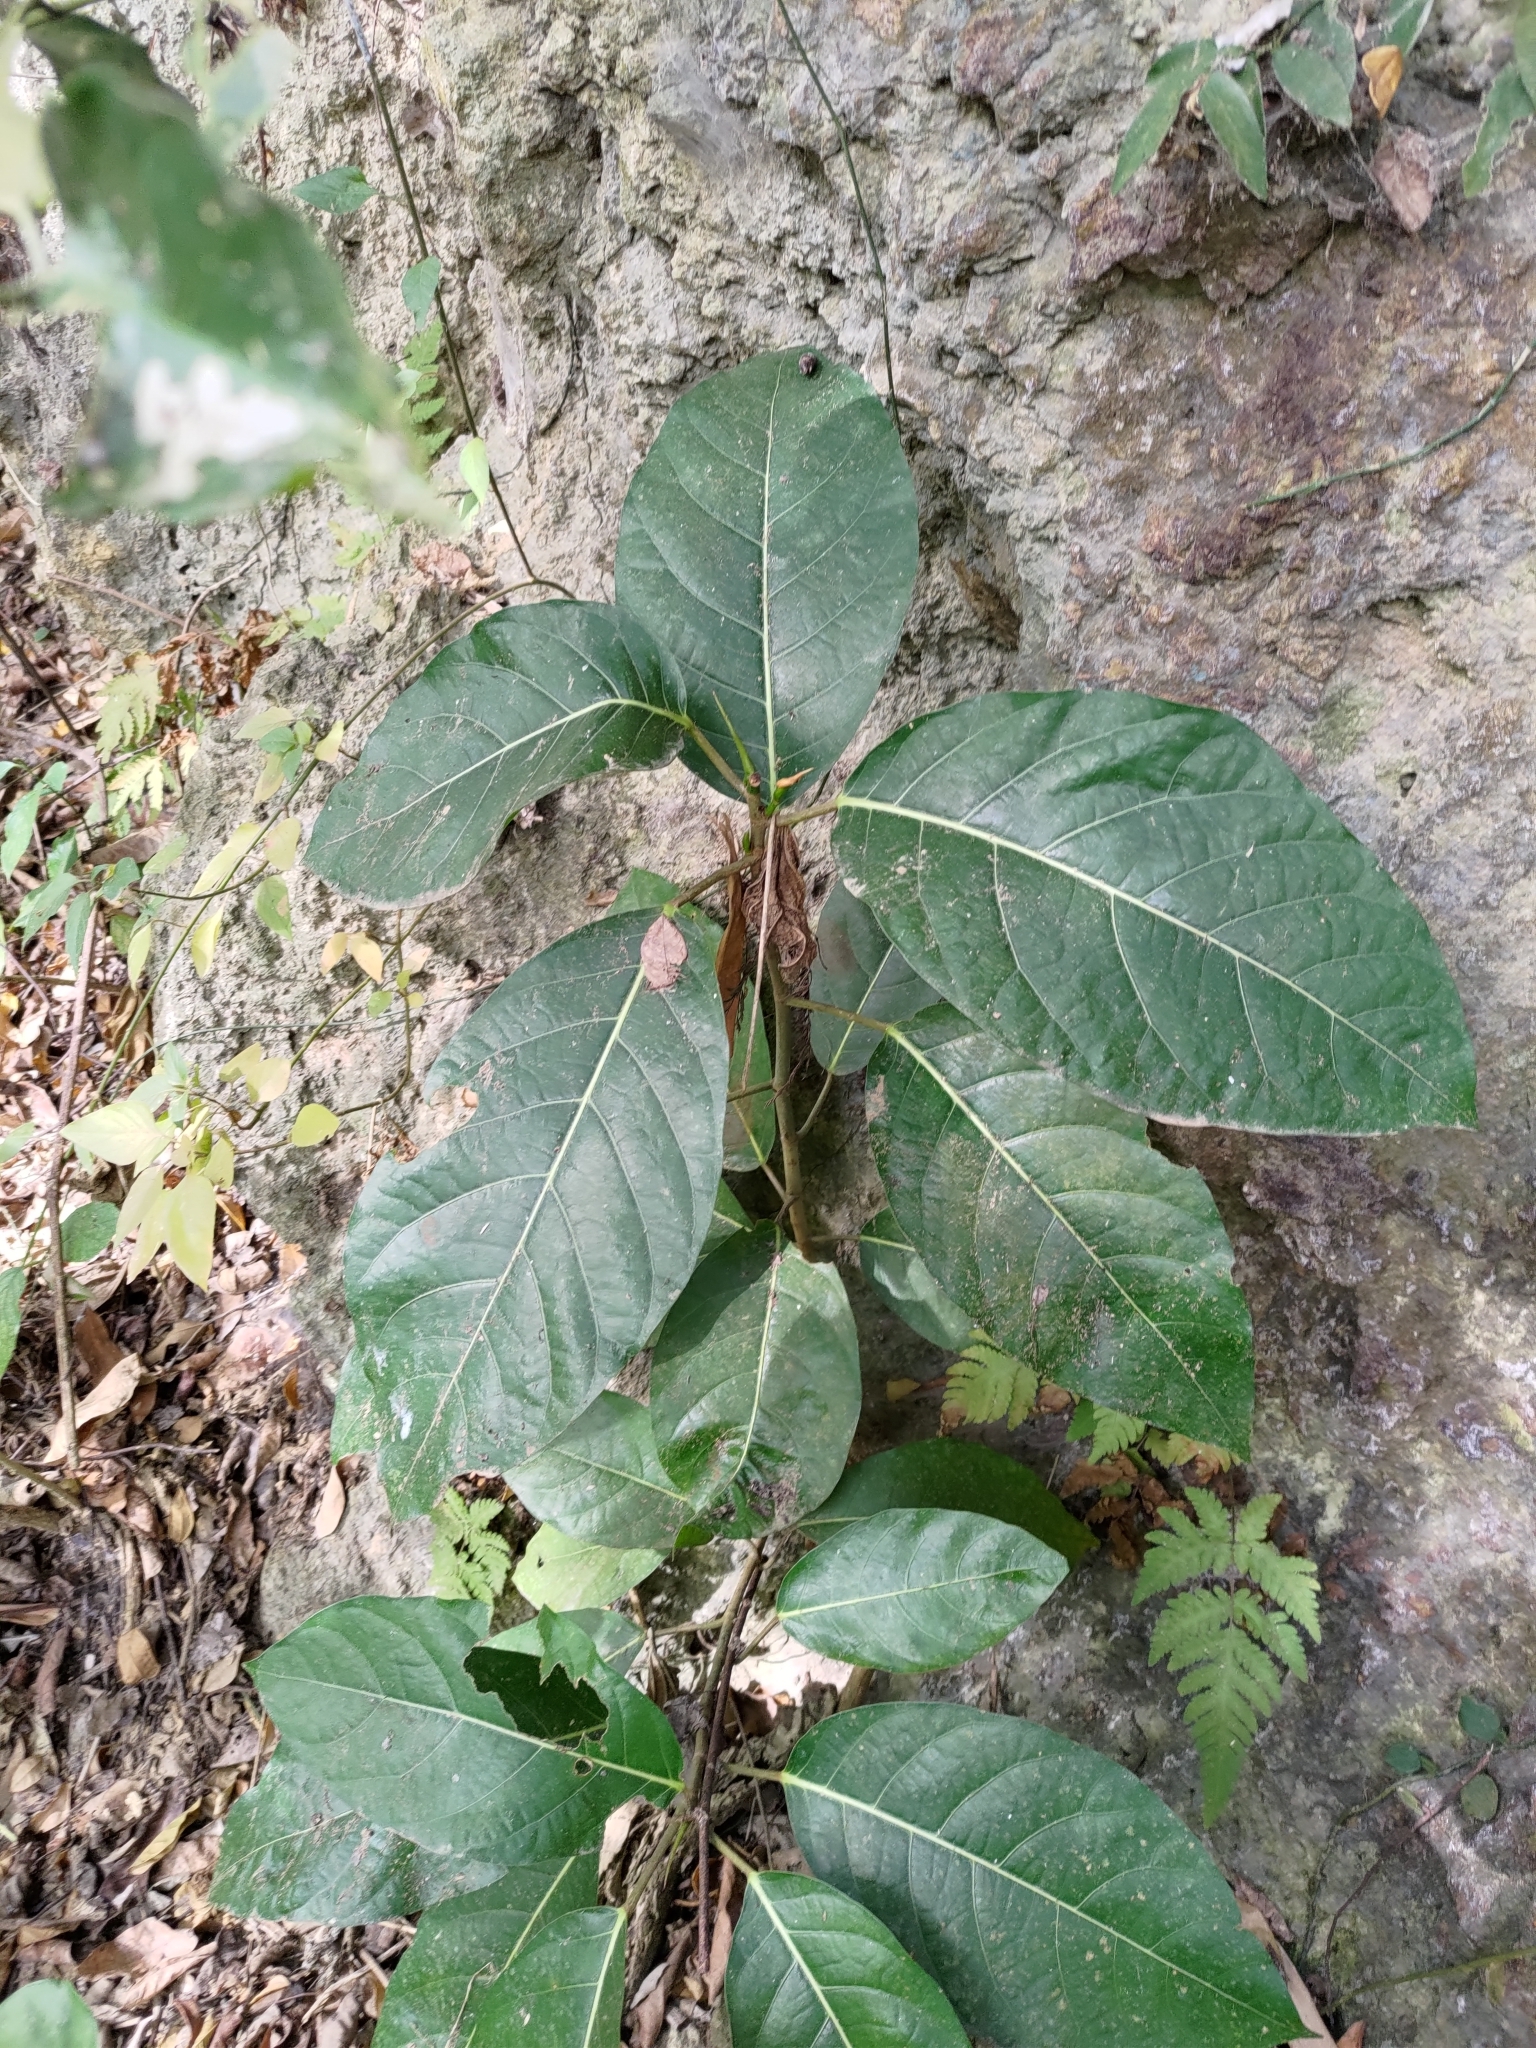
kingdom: Plantae
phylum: Tracheophyta
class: Magnoliopsida
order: Rosales
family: Moraceae
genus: Ficus
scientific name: Ficus septica
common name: Septic fig
